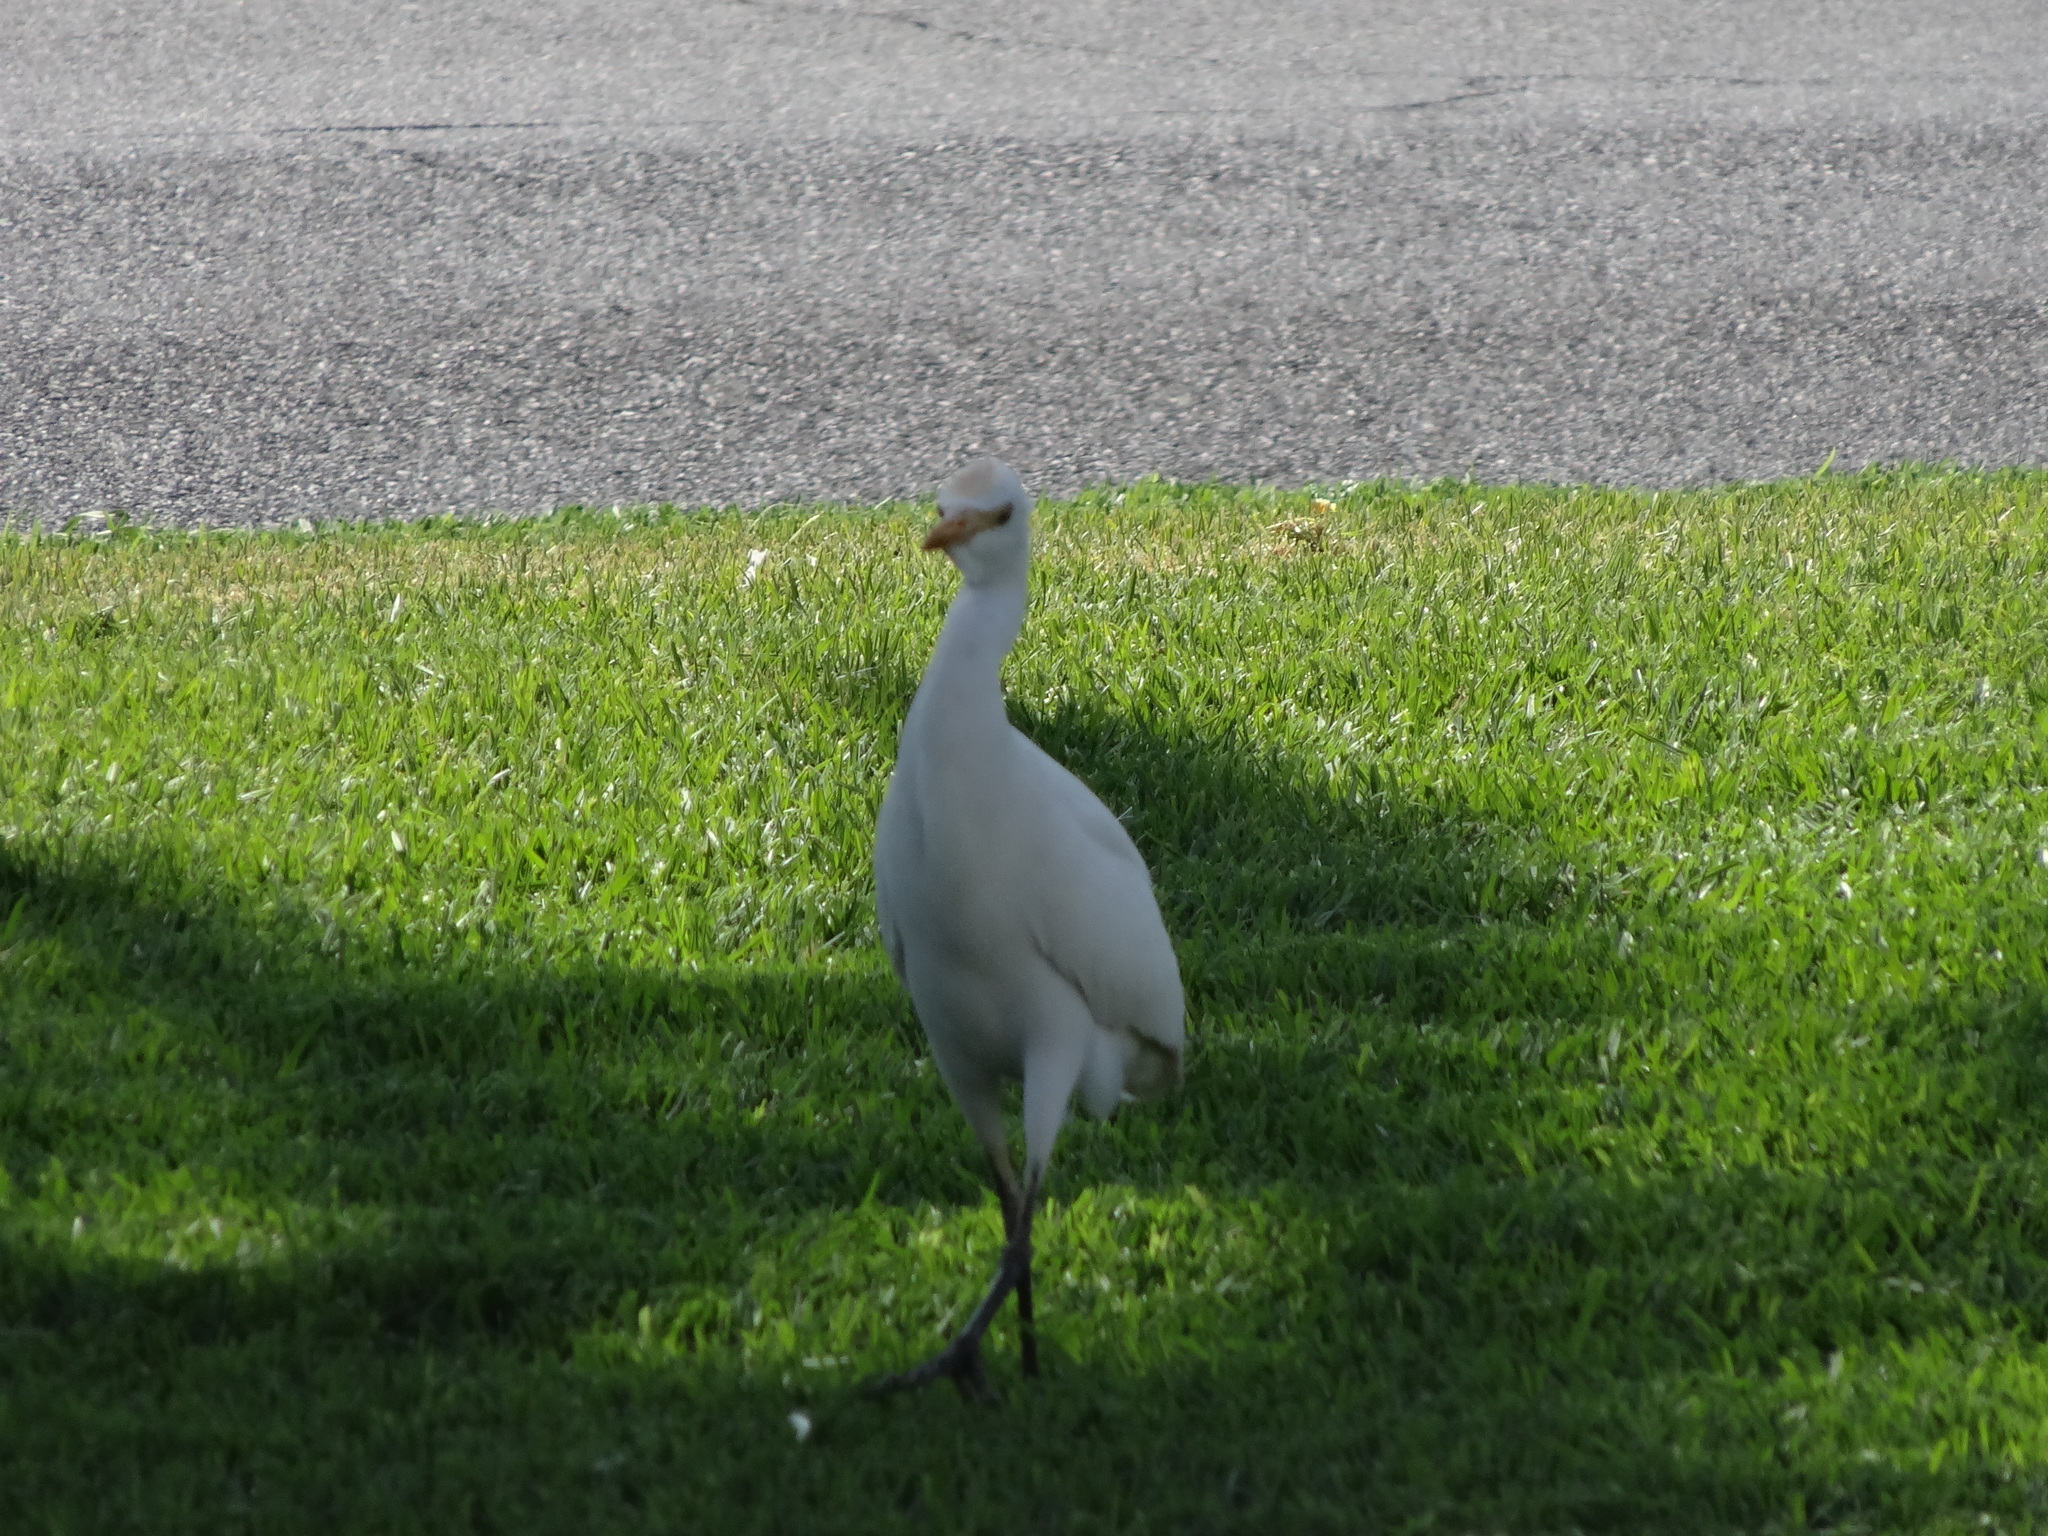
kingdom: Animalia
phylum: Chordata
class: Aves
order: Pelecaniformes
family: Ardeidae
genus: Bubulcus
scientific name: Bubulcus ibis
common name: Cattle egret
